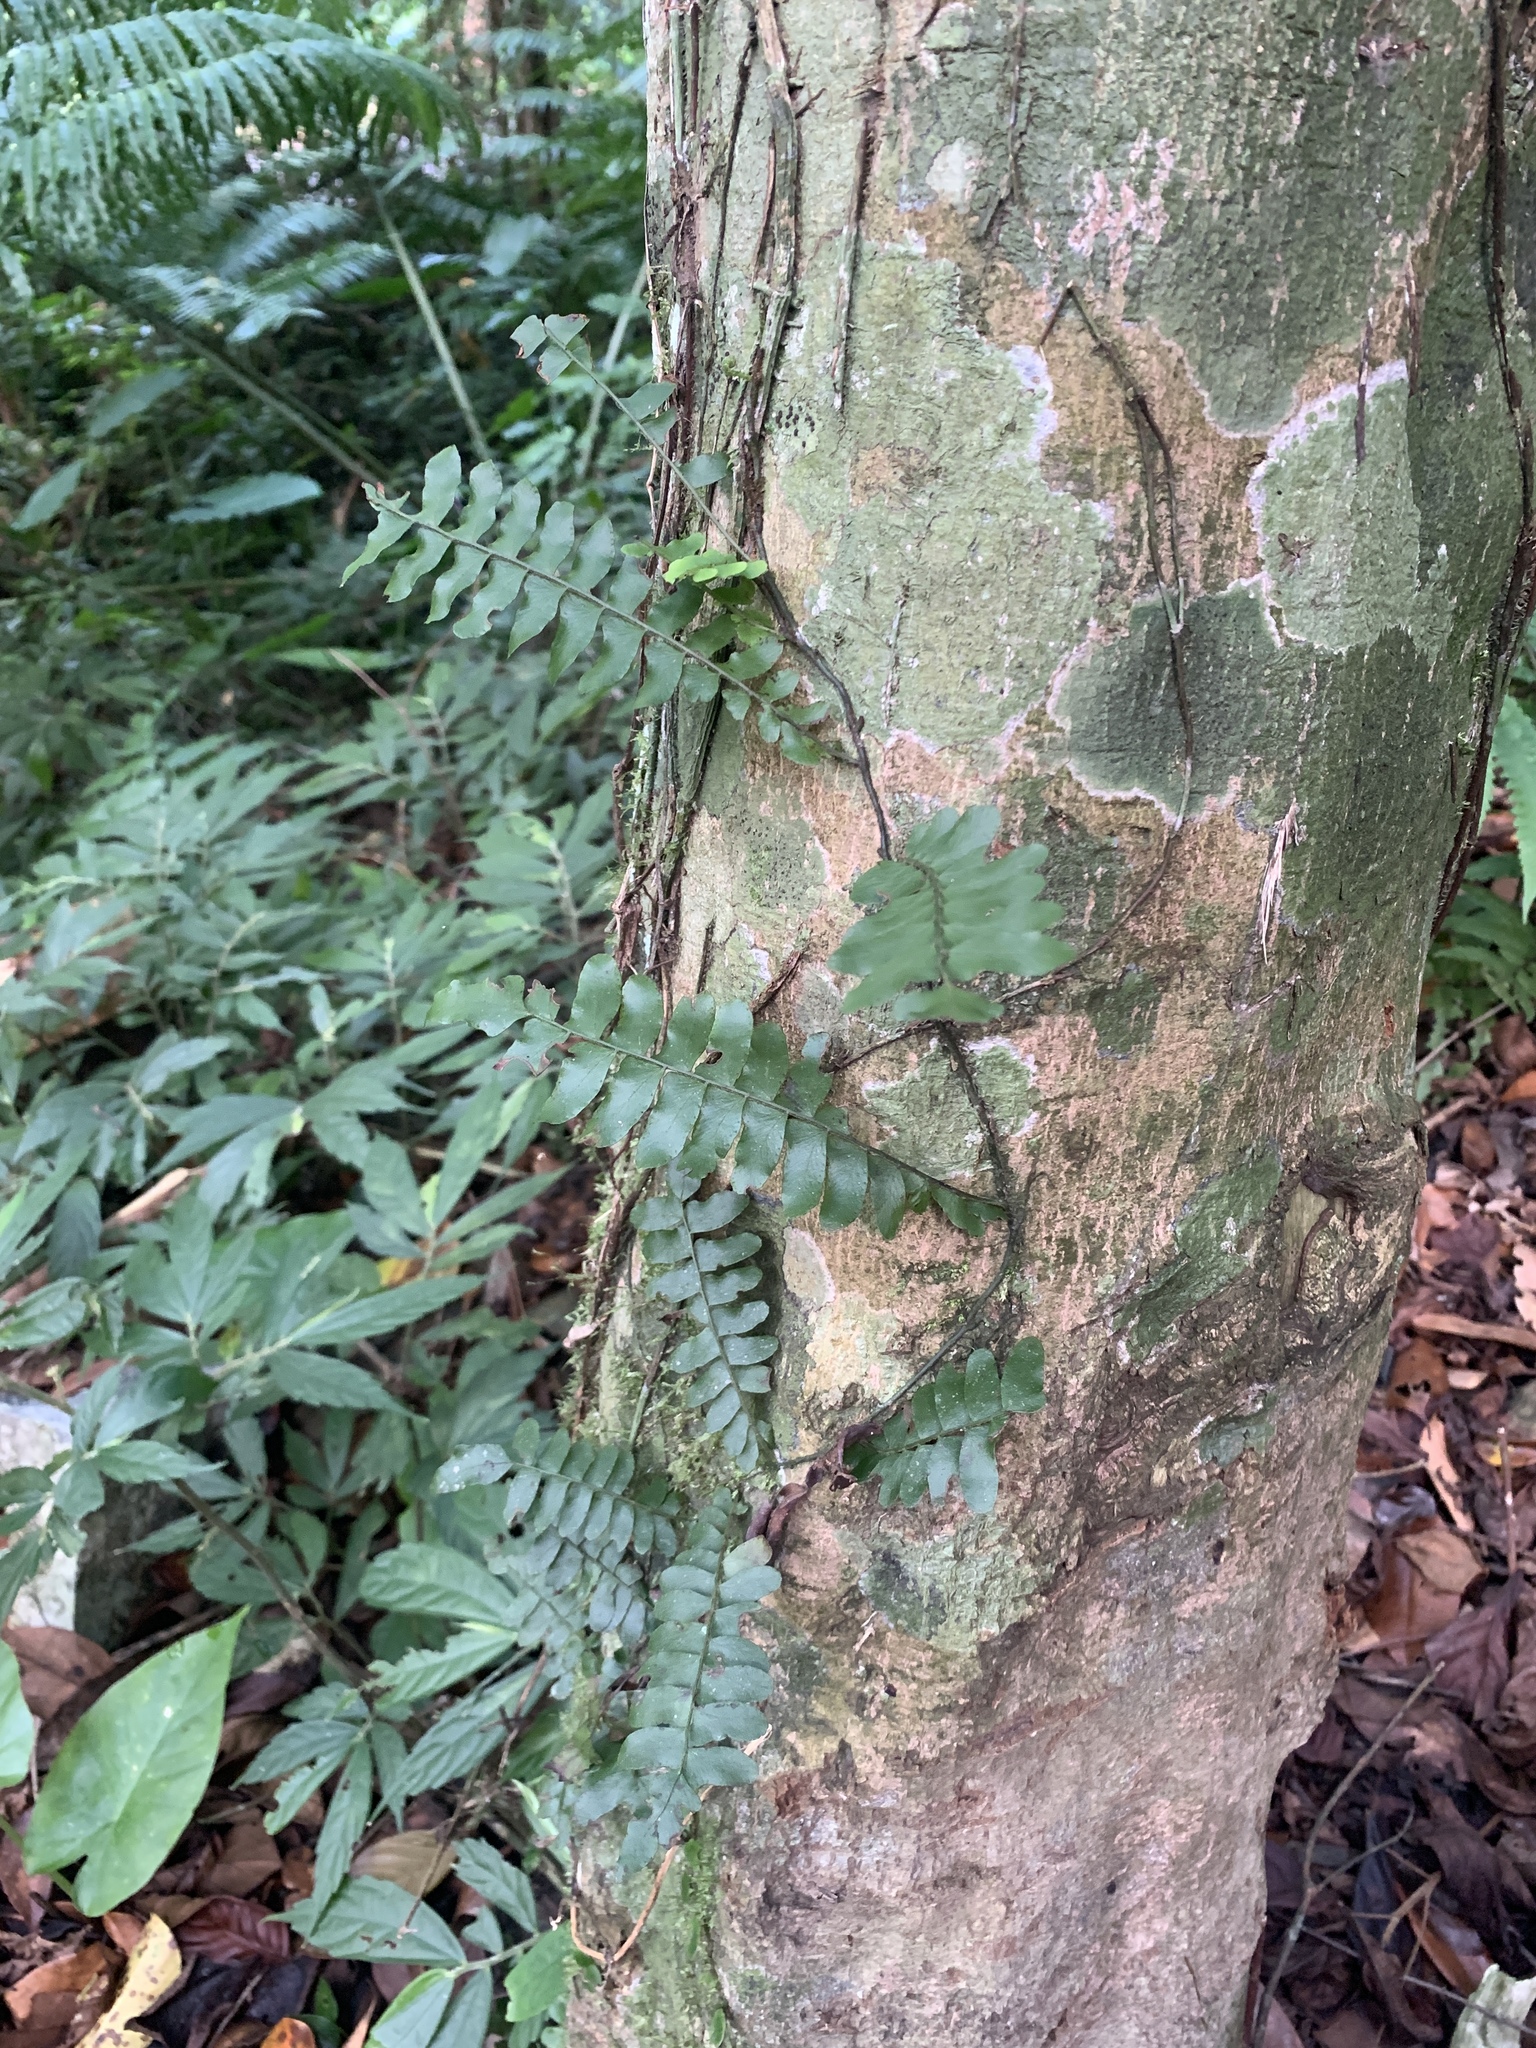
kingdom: Plantae
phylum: Tracheophyta
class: Polypodiopsida
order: Polypodiales
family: Tectariaceae
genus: Arthropteris
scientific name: Arthropteris palisotii
